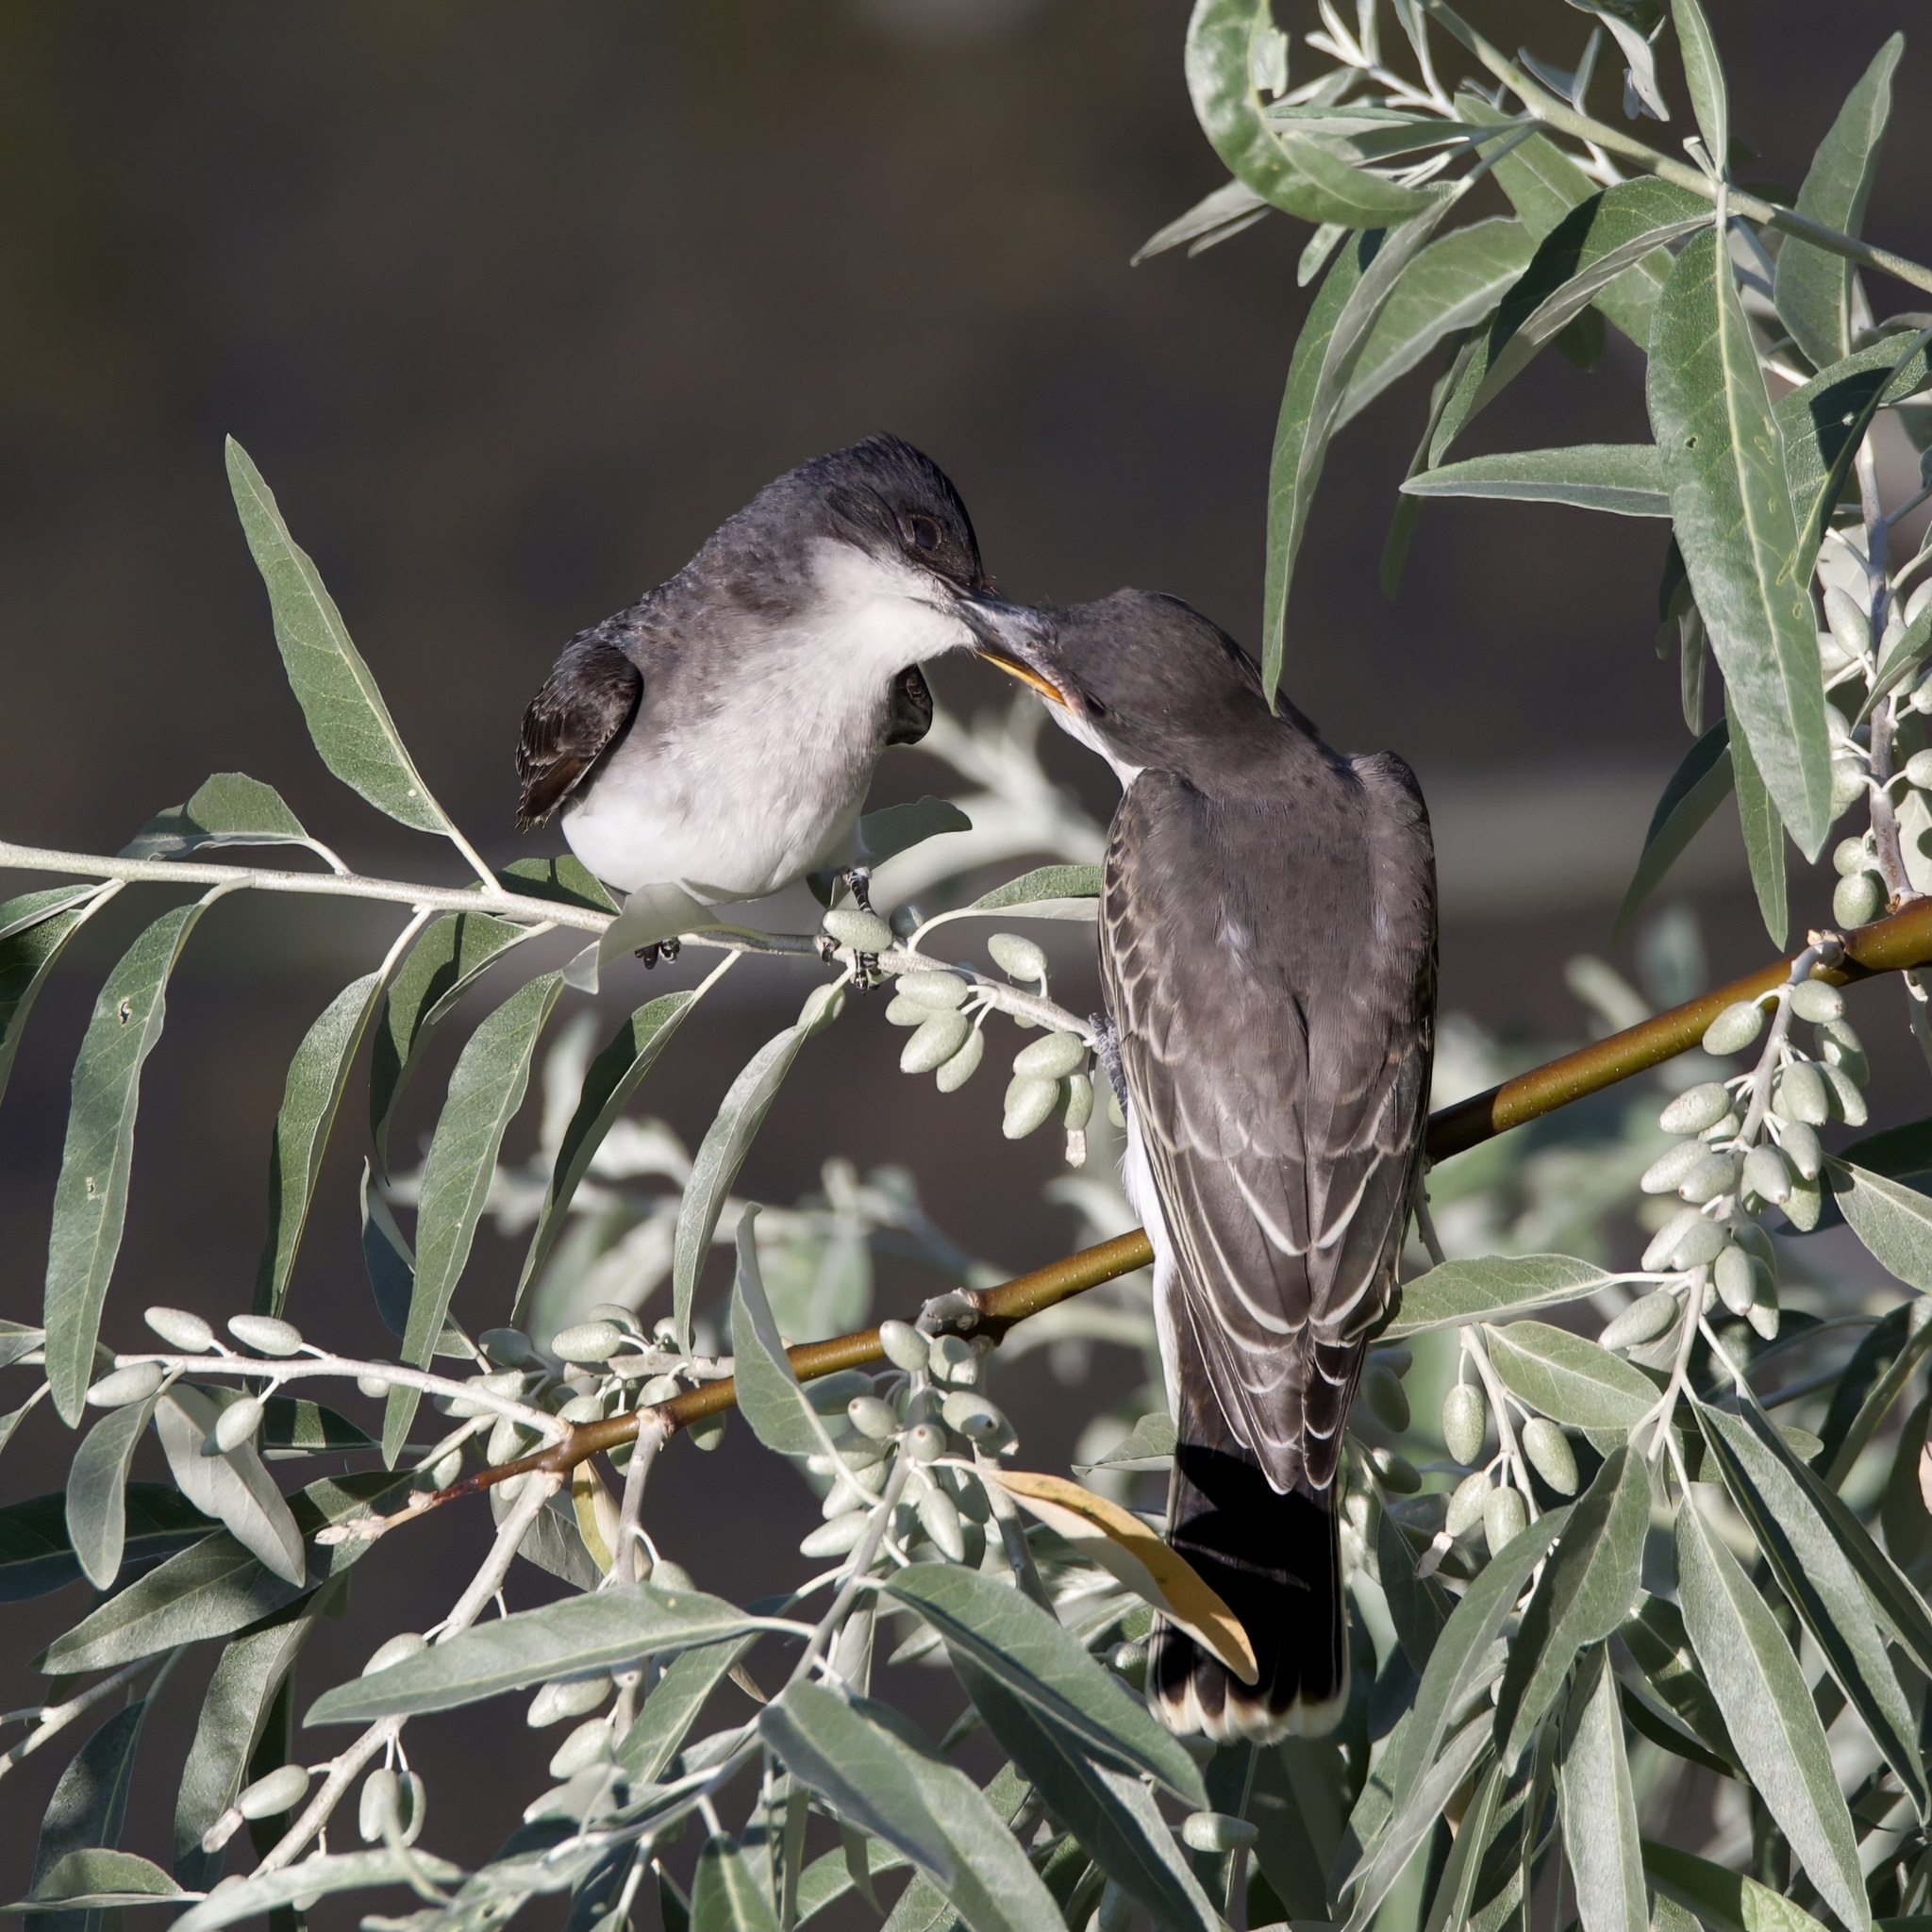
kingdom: Animalia
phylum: Chordata
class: Aves
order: Passeriformes
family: Tyrannidae
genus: Tyrannus
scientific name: Tyrannus tyrannus
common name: Eastern kingbird
